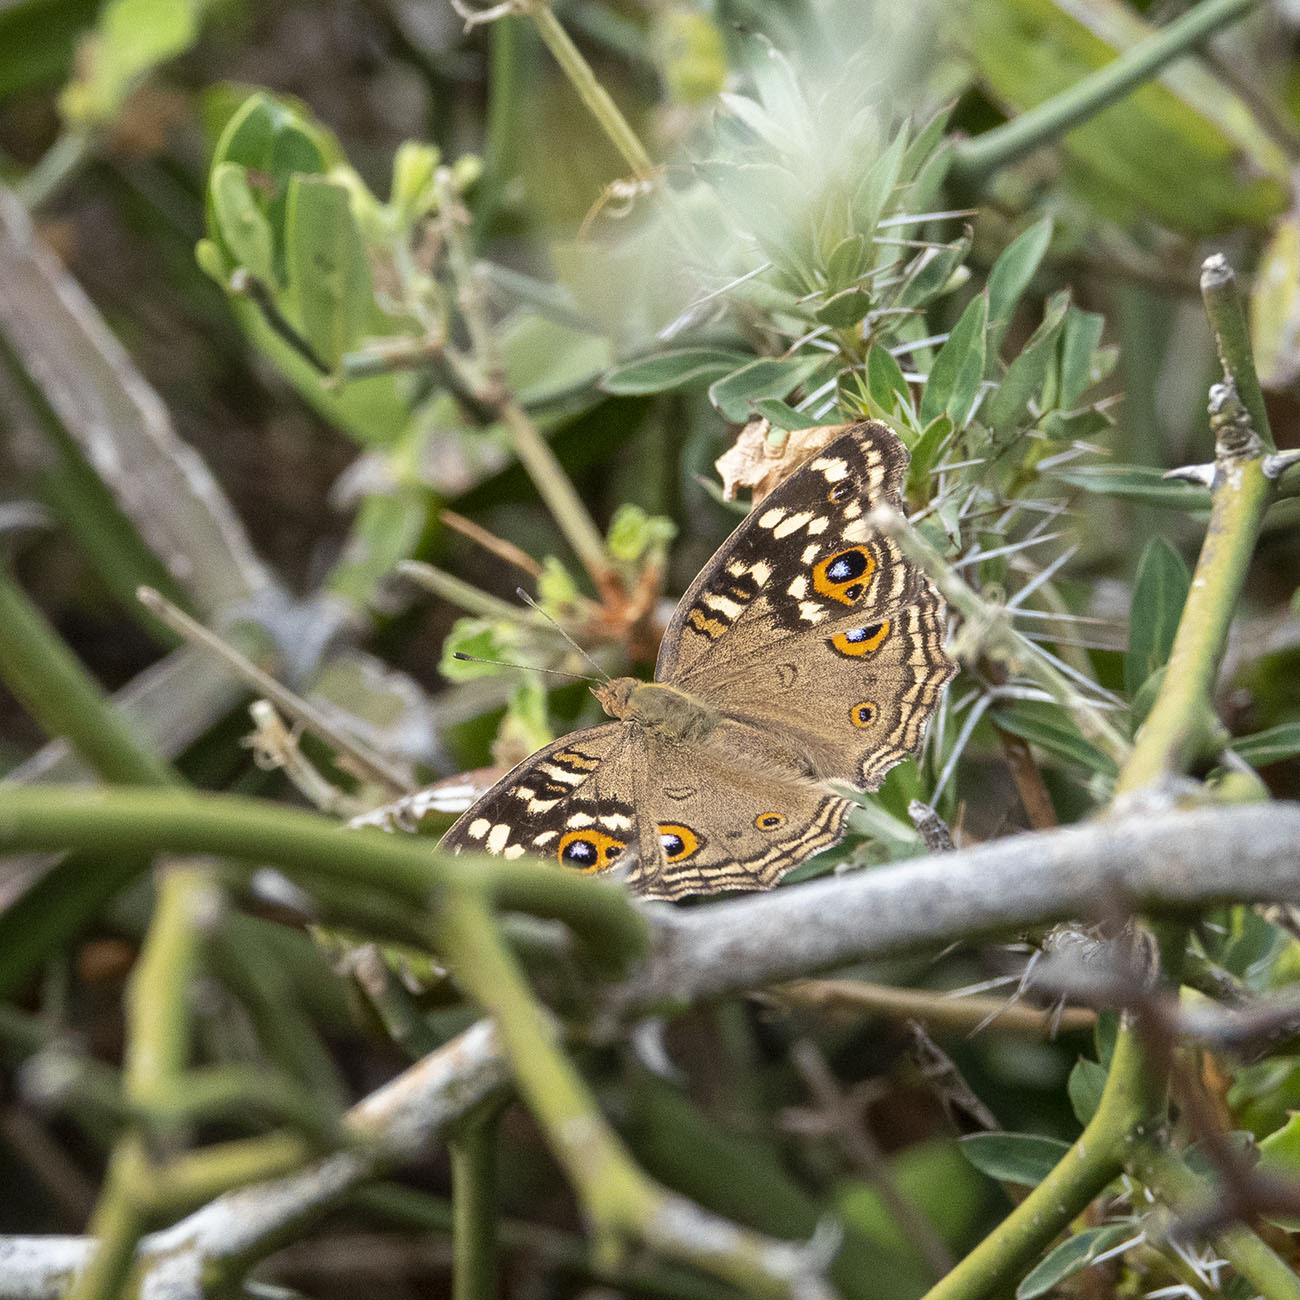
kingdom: Animalia
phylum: Arthropoda
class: Insecta
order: Lepidoptera
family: Nymphalidae
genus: Junonia
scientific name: Junonia lemonias
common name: Lemon pansy
